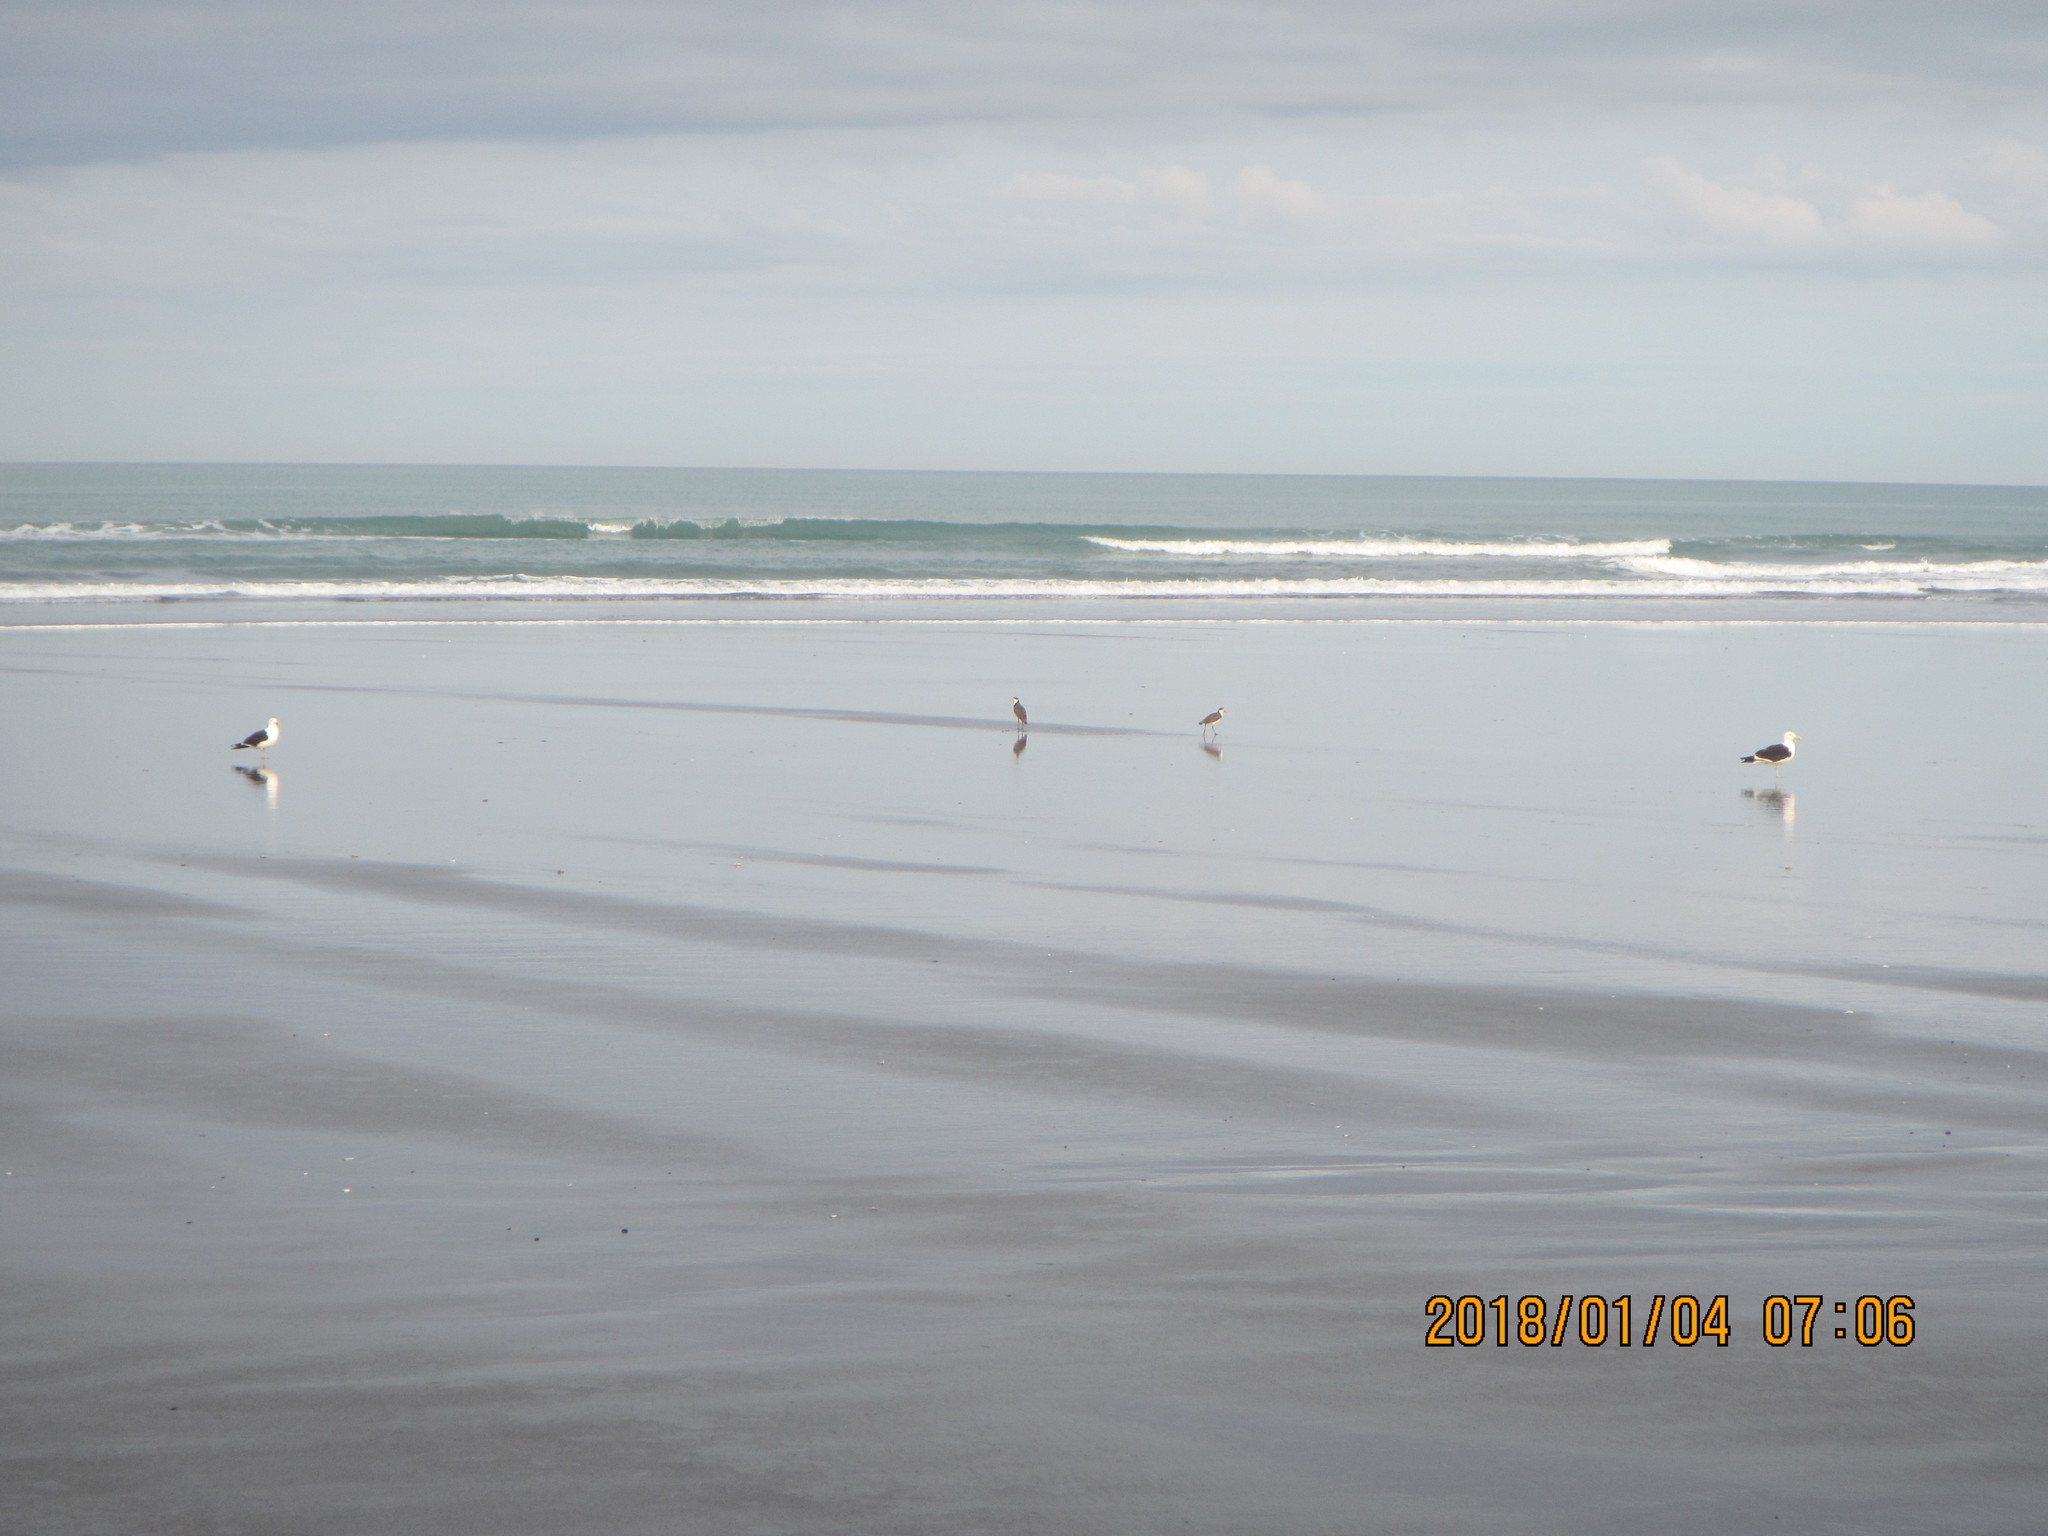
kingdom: Animalia
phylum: Chordata
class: Aves
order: Charadriiformes
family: Charadriidae
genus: Vanellus
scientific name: Vanellus miles
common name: Masked lapwing
